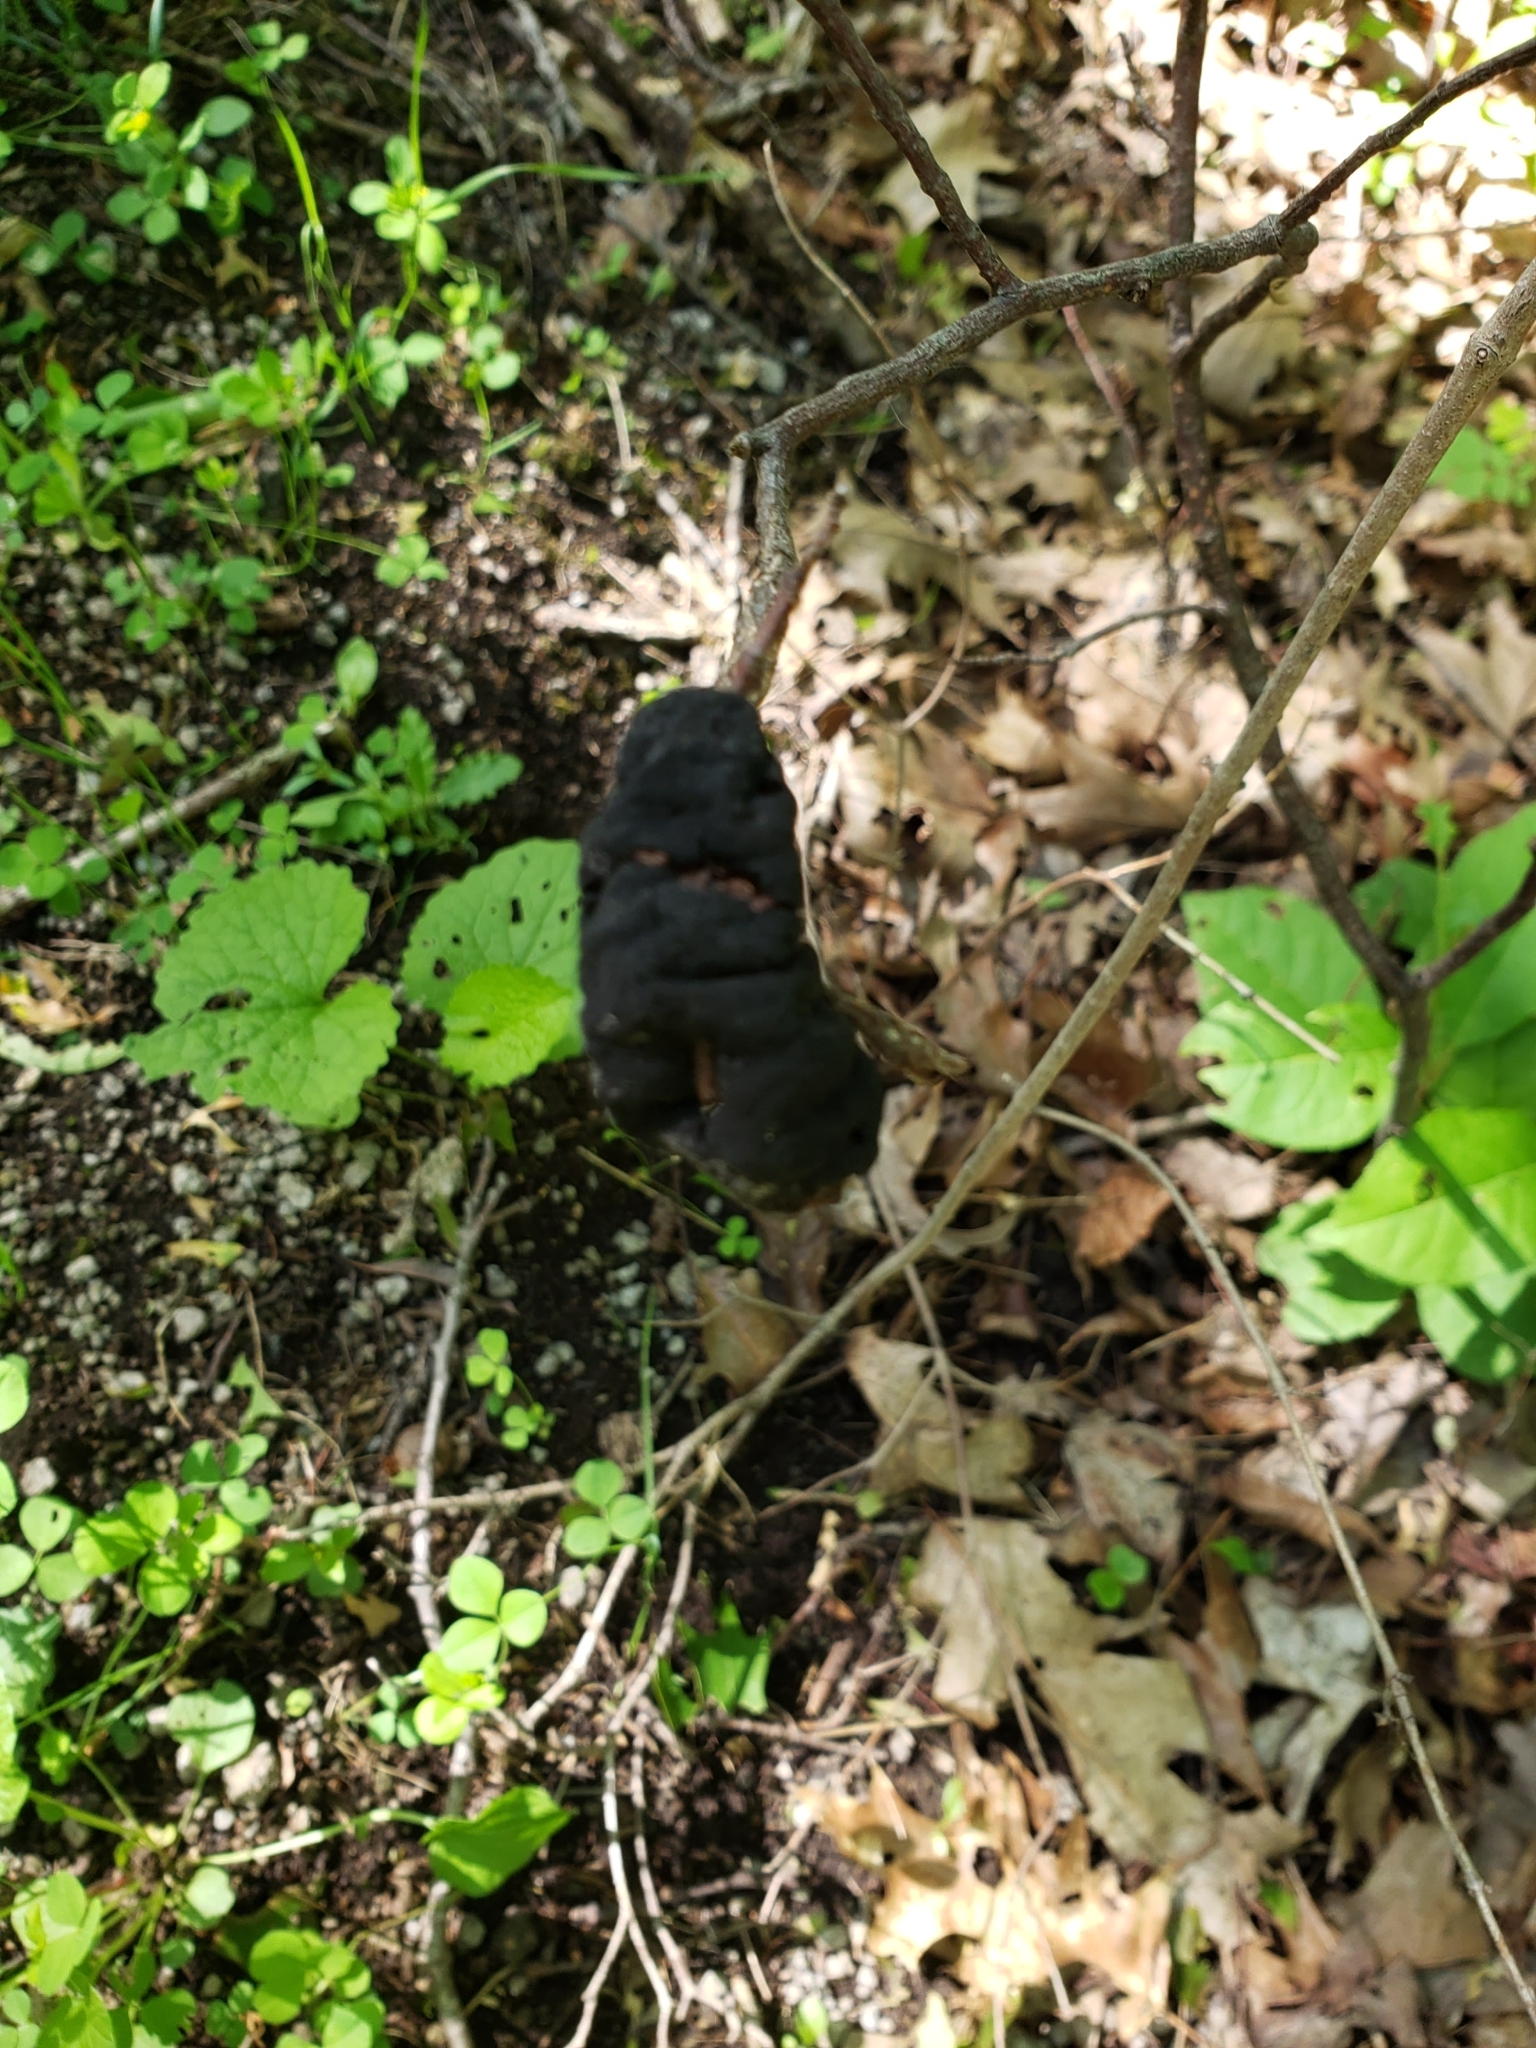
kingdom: Fungi
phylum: Ascomycota
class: Dothideomycetes
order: Venturiales
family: Venturiaceae
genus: Apiosporina
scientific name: Apiosporina morbosa
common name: Black knot
